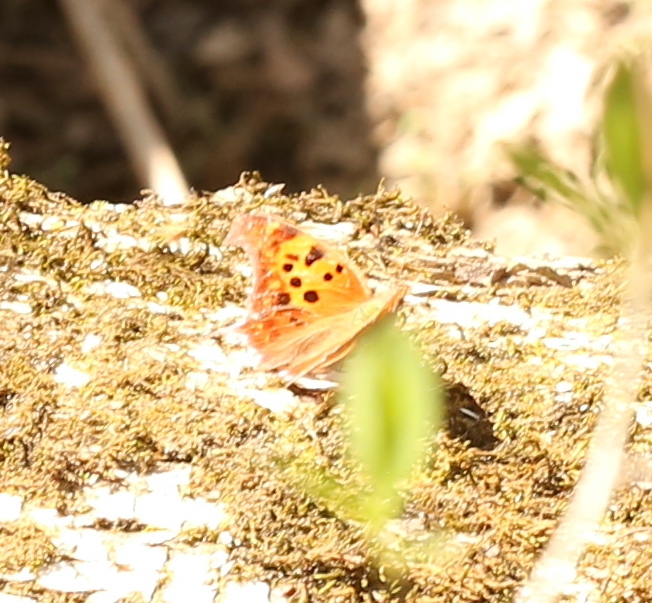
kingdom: Animalia
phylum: Arthropoda
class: Insecta
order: Lepidoptera
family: Nymphalidae
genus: Polygonia
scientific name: Polygonia interrogationis
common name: Question mark
